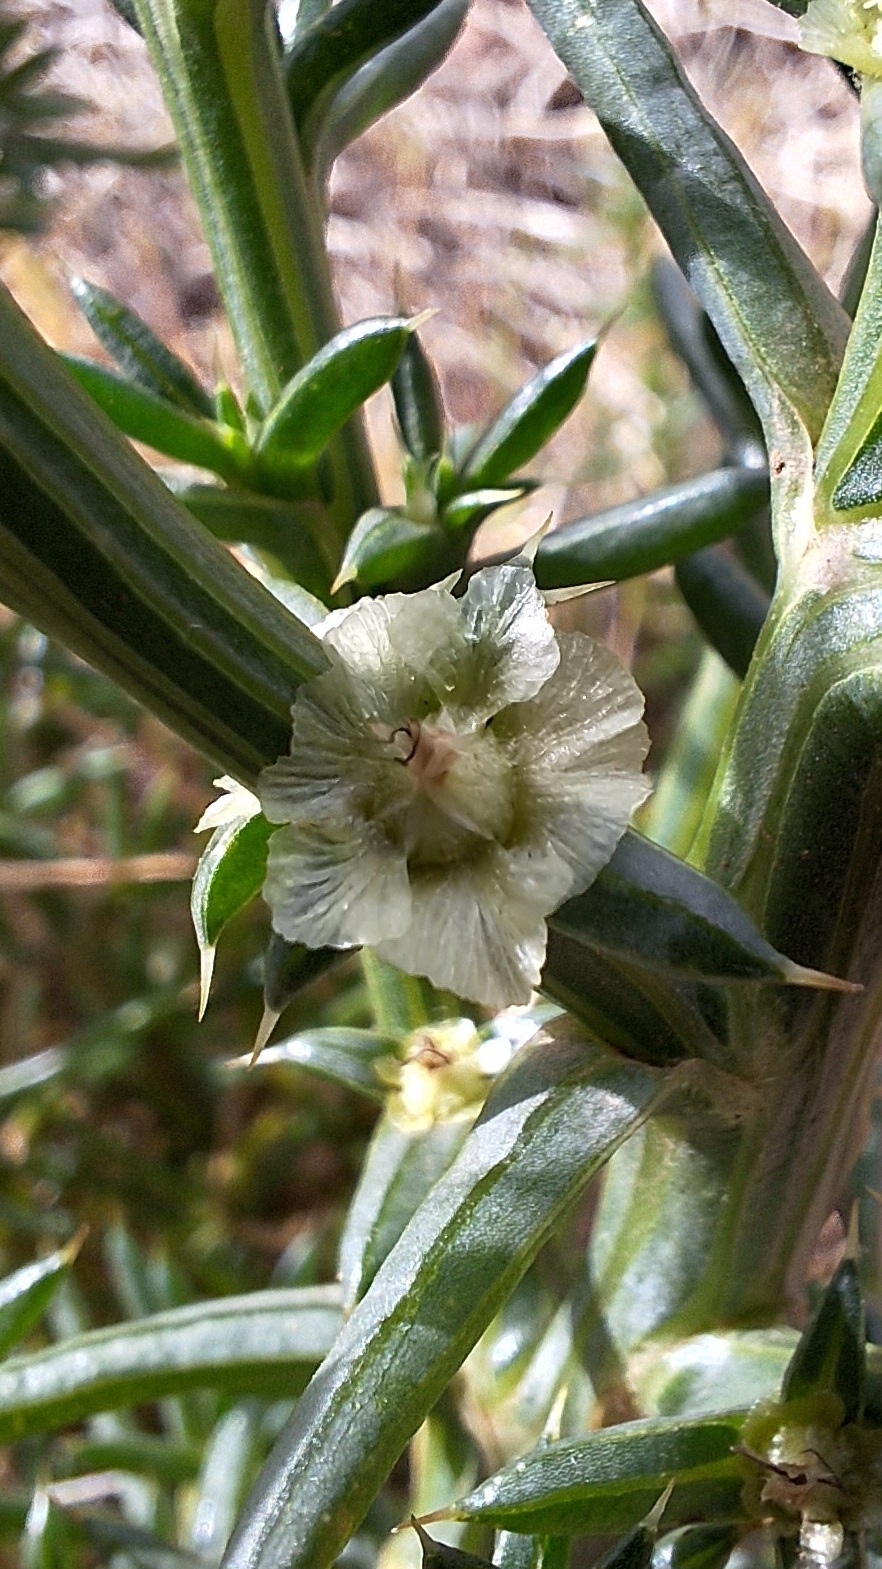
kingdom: Plantae
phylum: Tracheophyta
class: Magnoliopsida
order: Caryophyllales
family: Amaranthaceae
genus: Salsola
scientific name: Salsola australis
